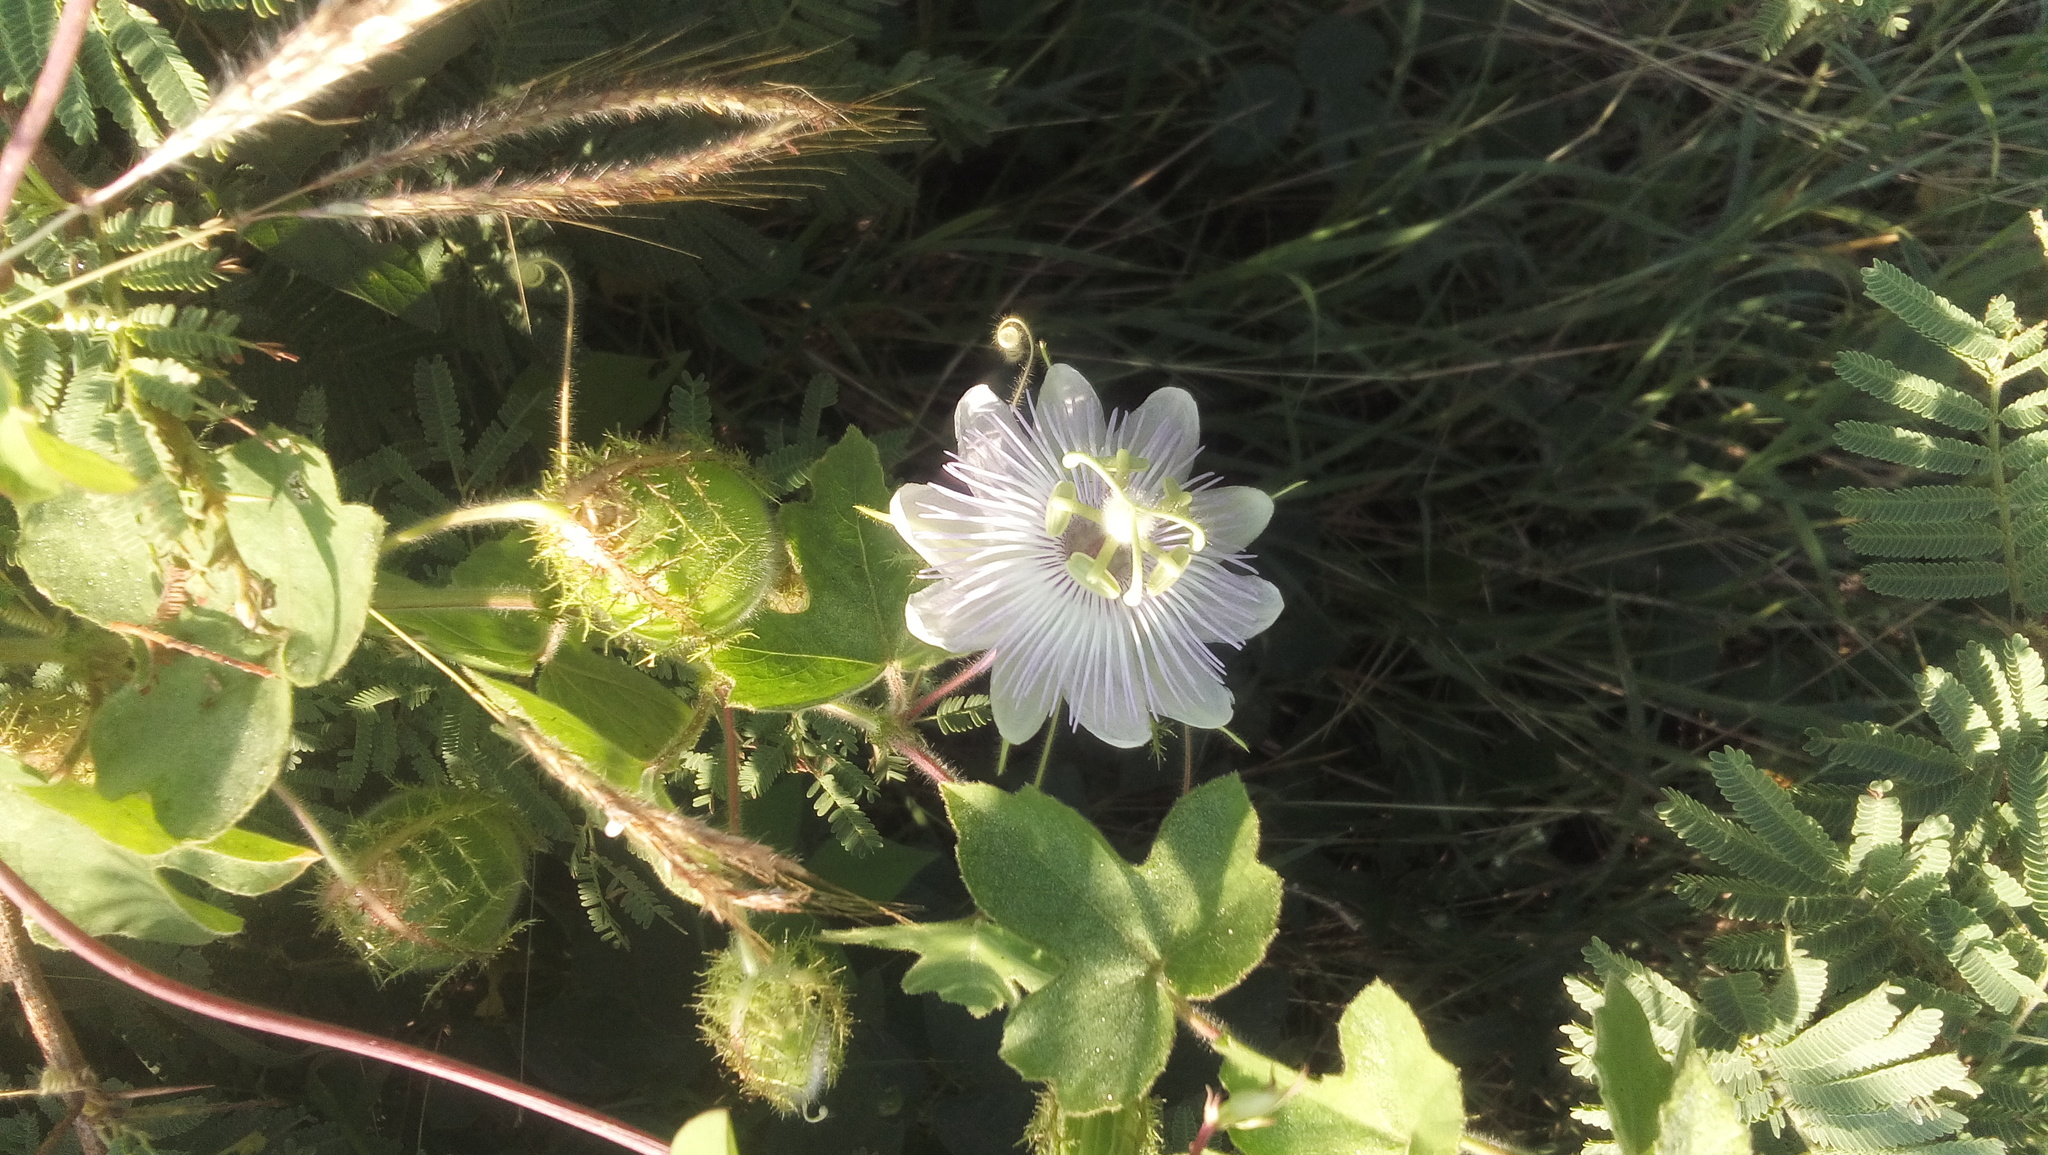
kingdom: Plantae
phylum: Tracheophyta
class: Magnoliopsida
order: Malpighiales
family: Passifloraceae
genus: Passiflora
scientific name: Passiflora foetida
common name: Fetid passionflower
